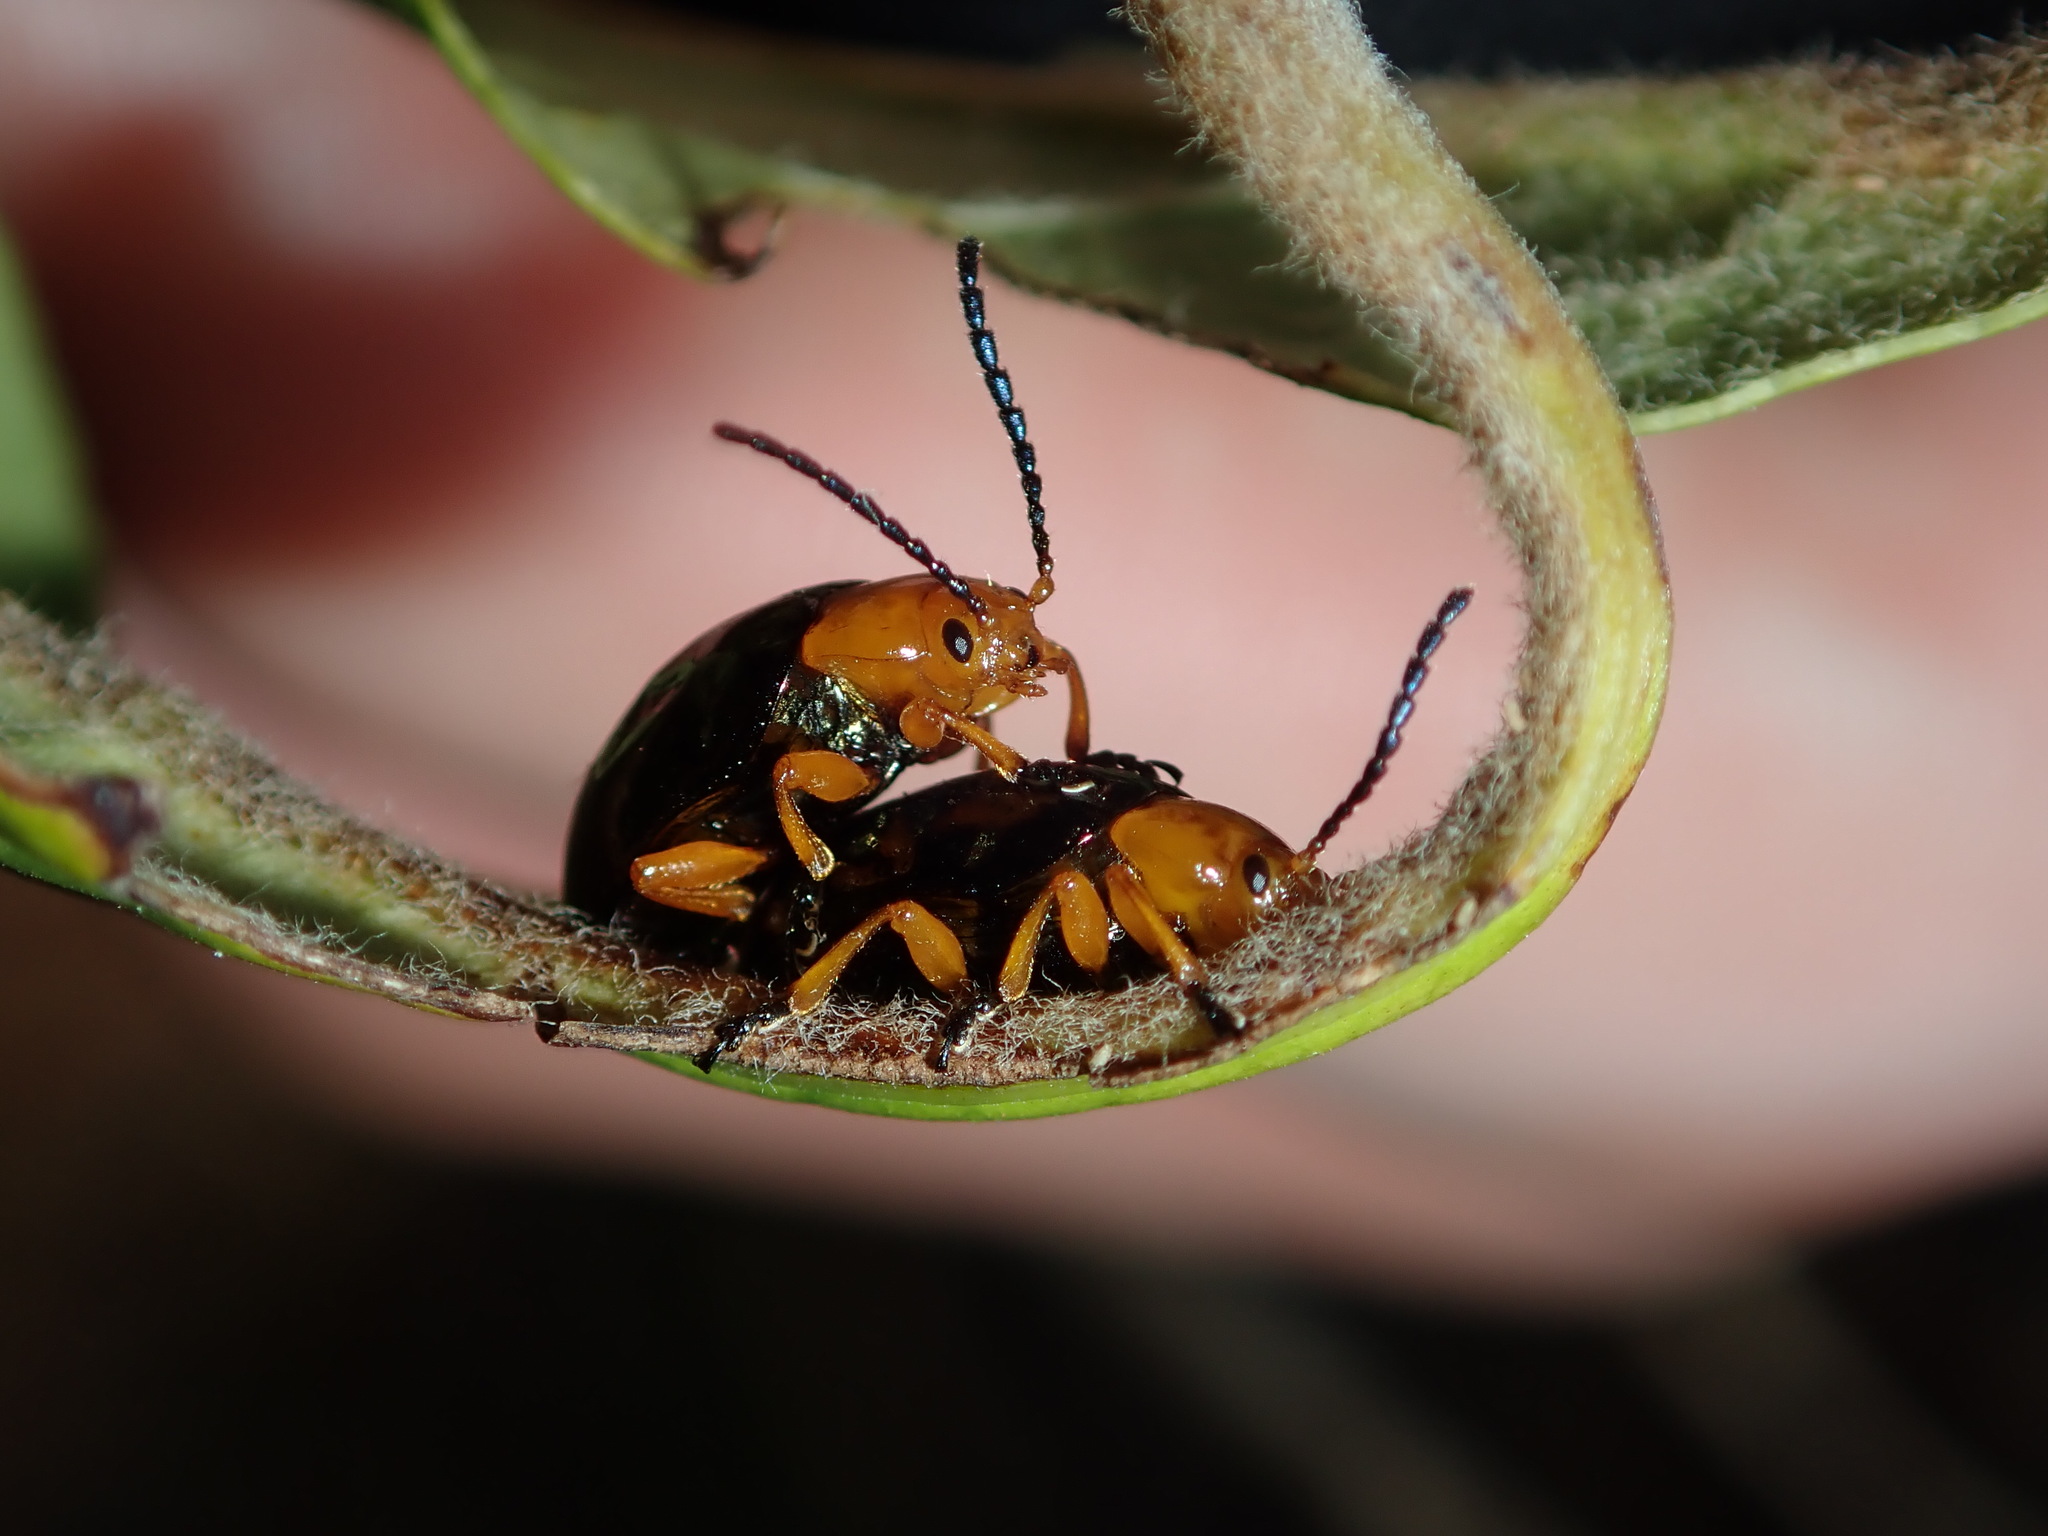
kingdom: Animalia
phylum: Arthropoda
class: Insecta
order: Coleoptera
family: Chrysomelidae
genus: Lamprolina
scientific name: Lamprolina
